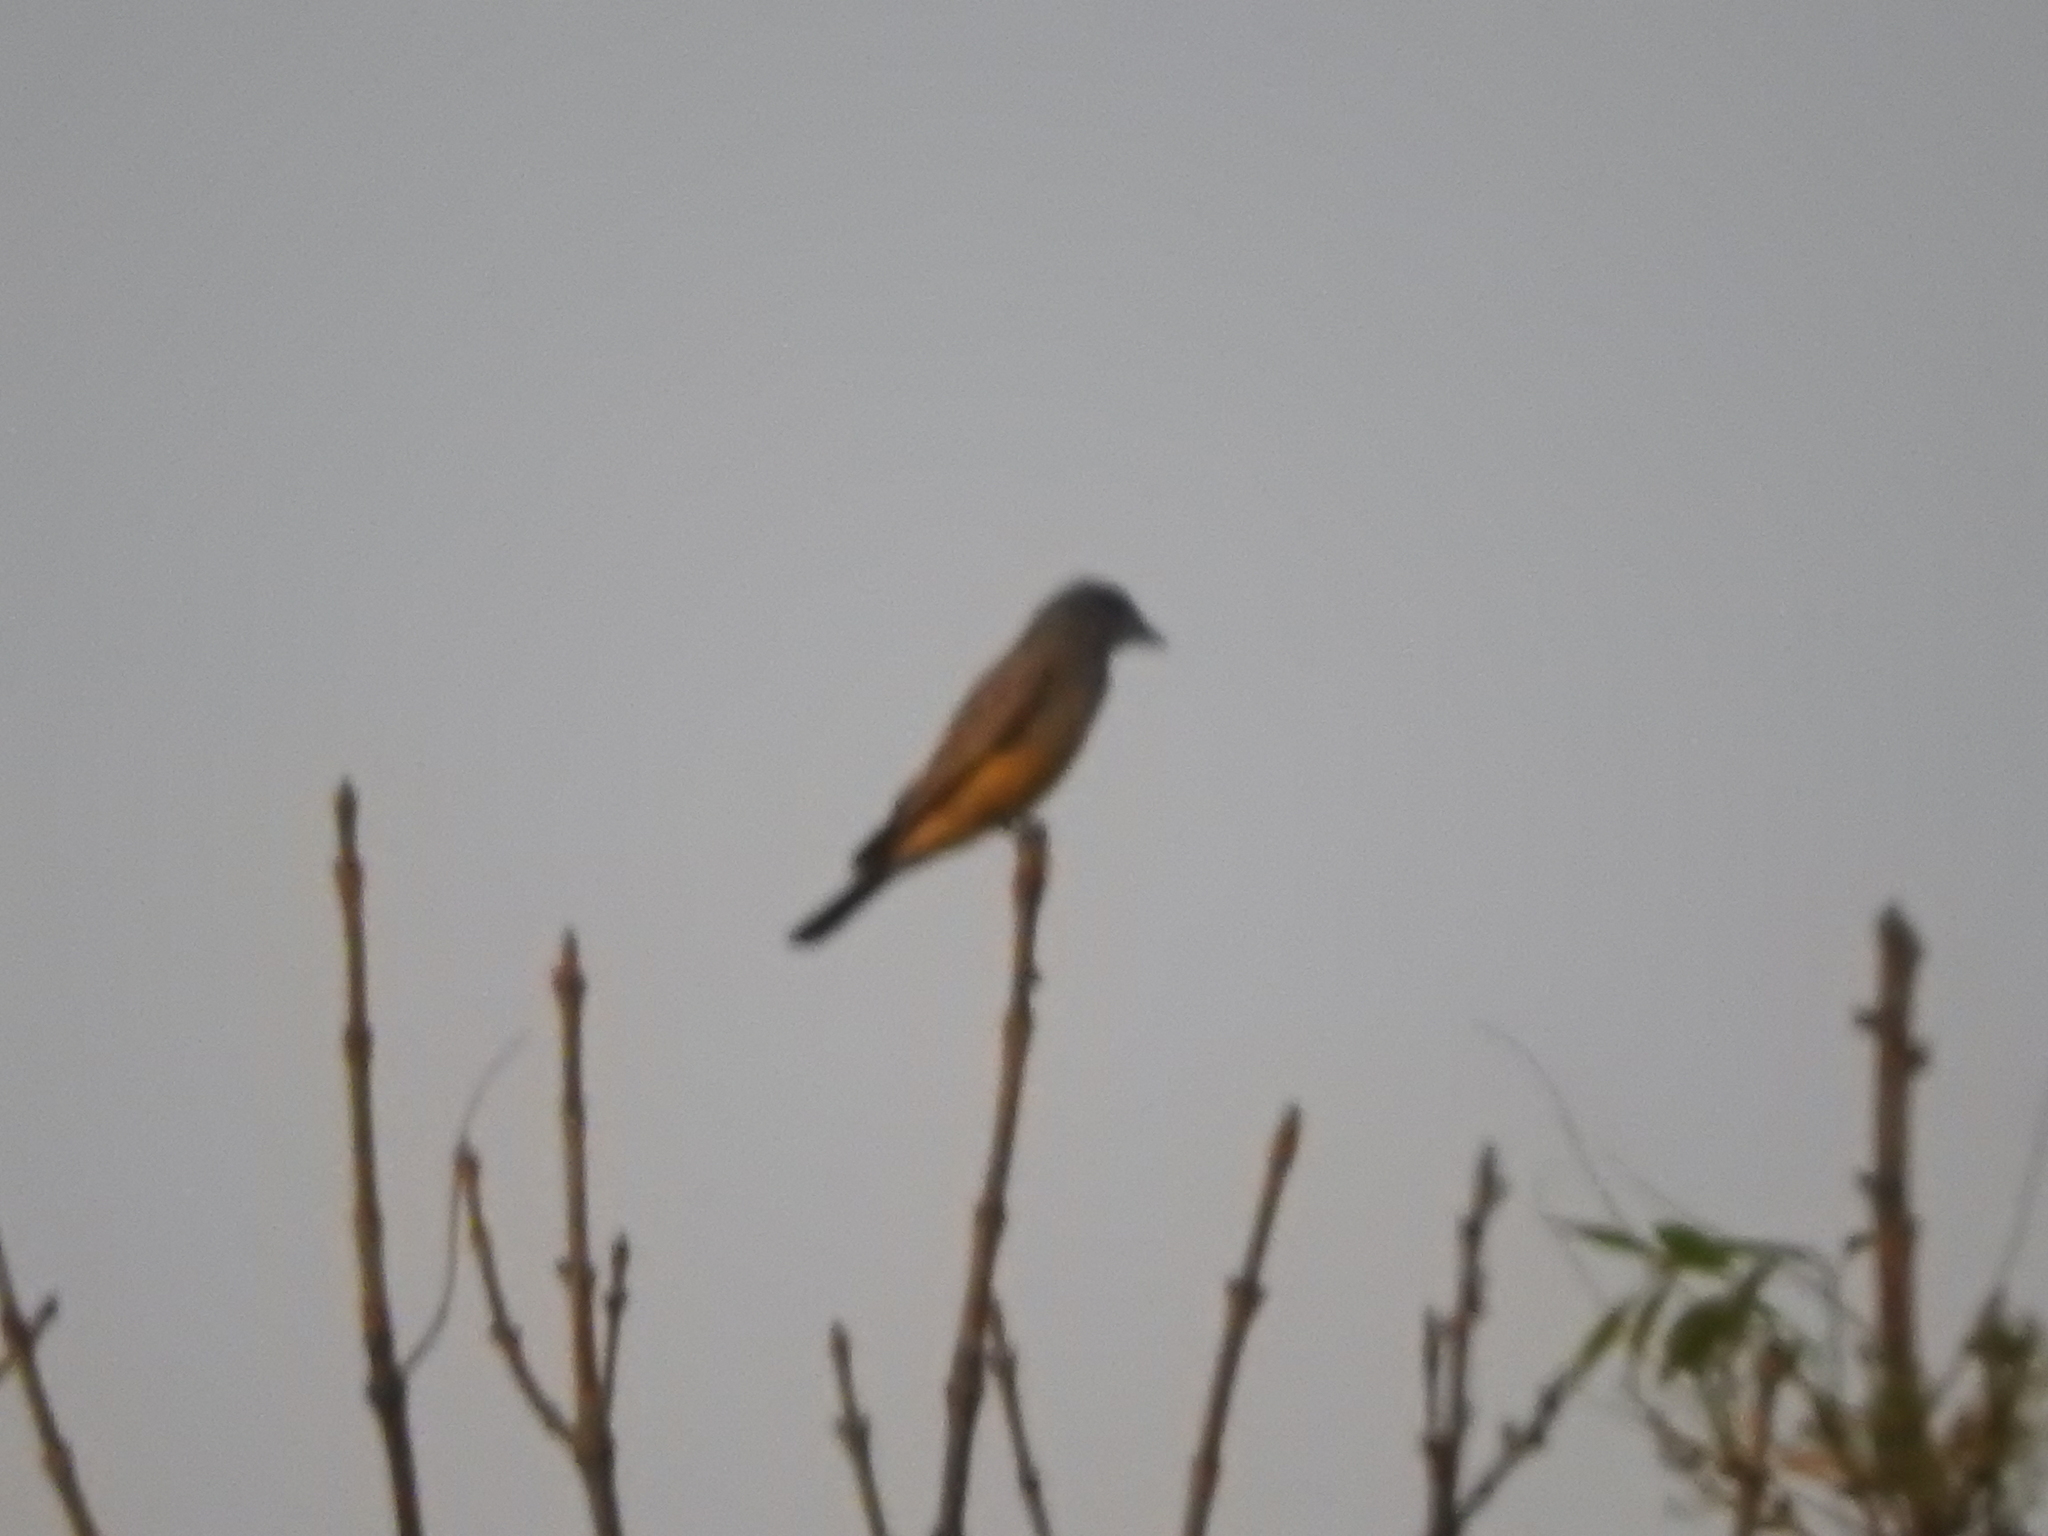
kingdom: Animalia
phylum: Chordata
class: Aves
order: Passeriformes
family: Tyrannidae
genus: Tyrannus
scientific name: Tyrannus vociferans
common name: Cassin's kingbird
